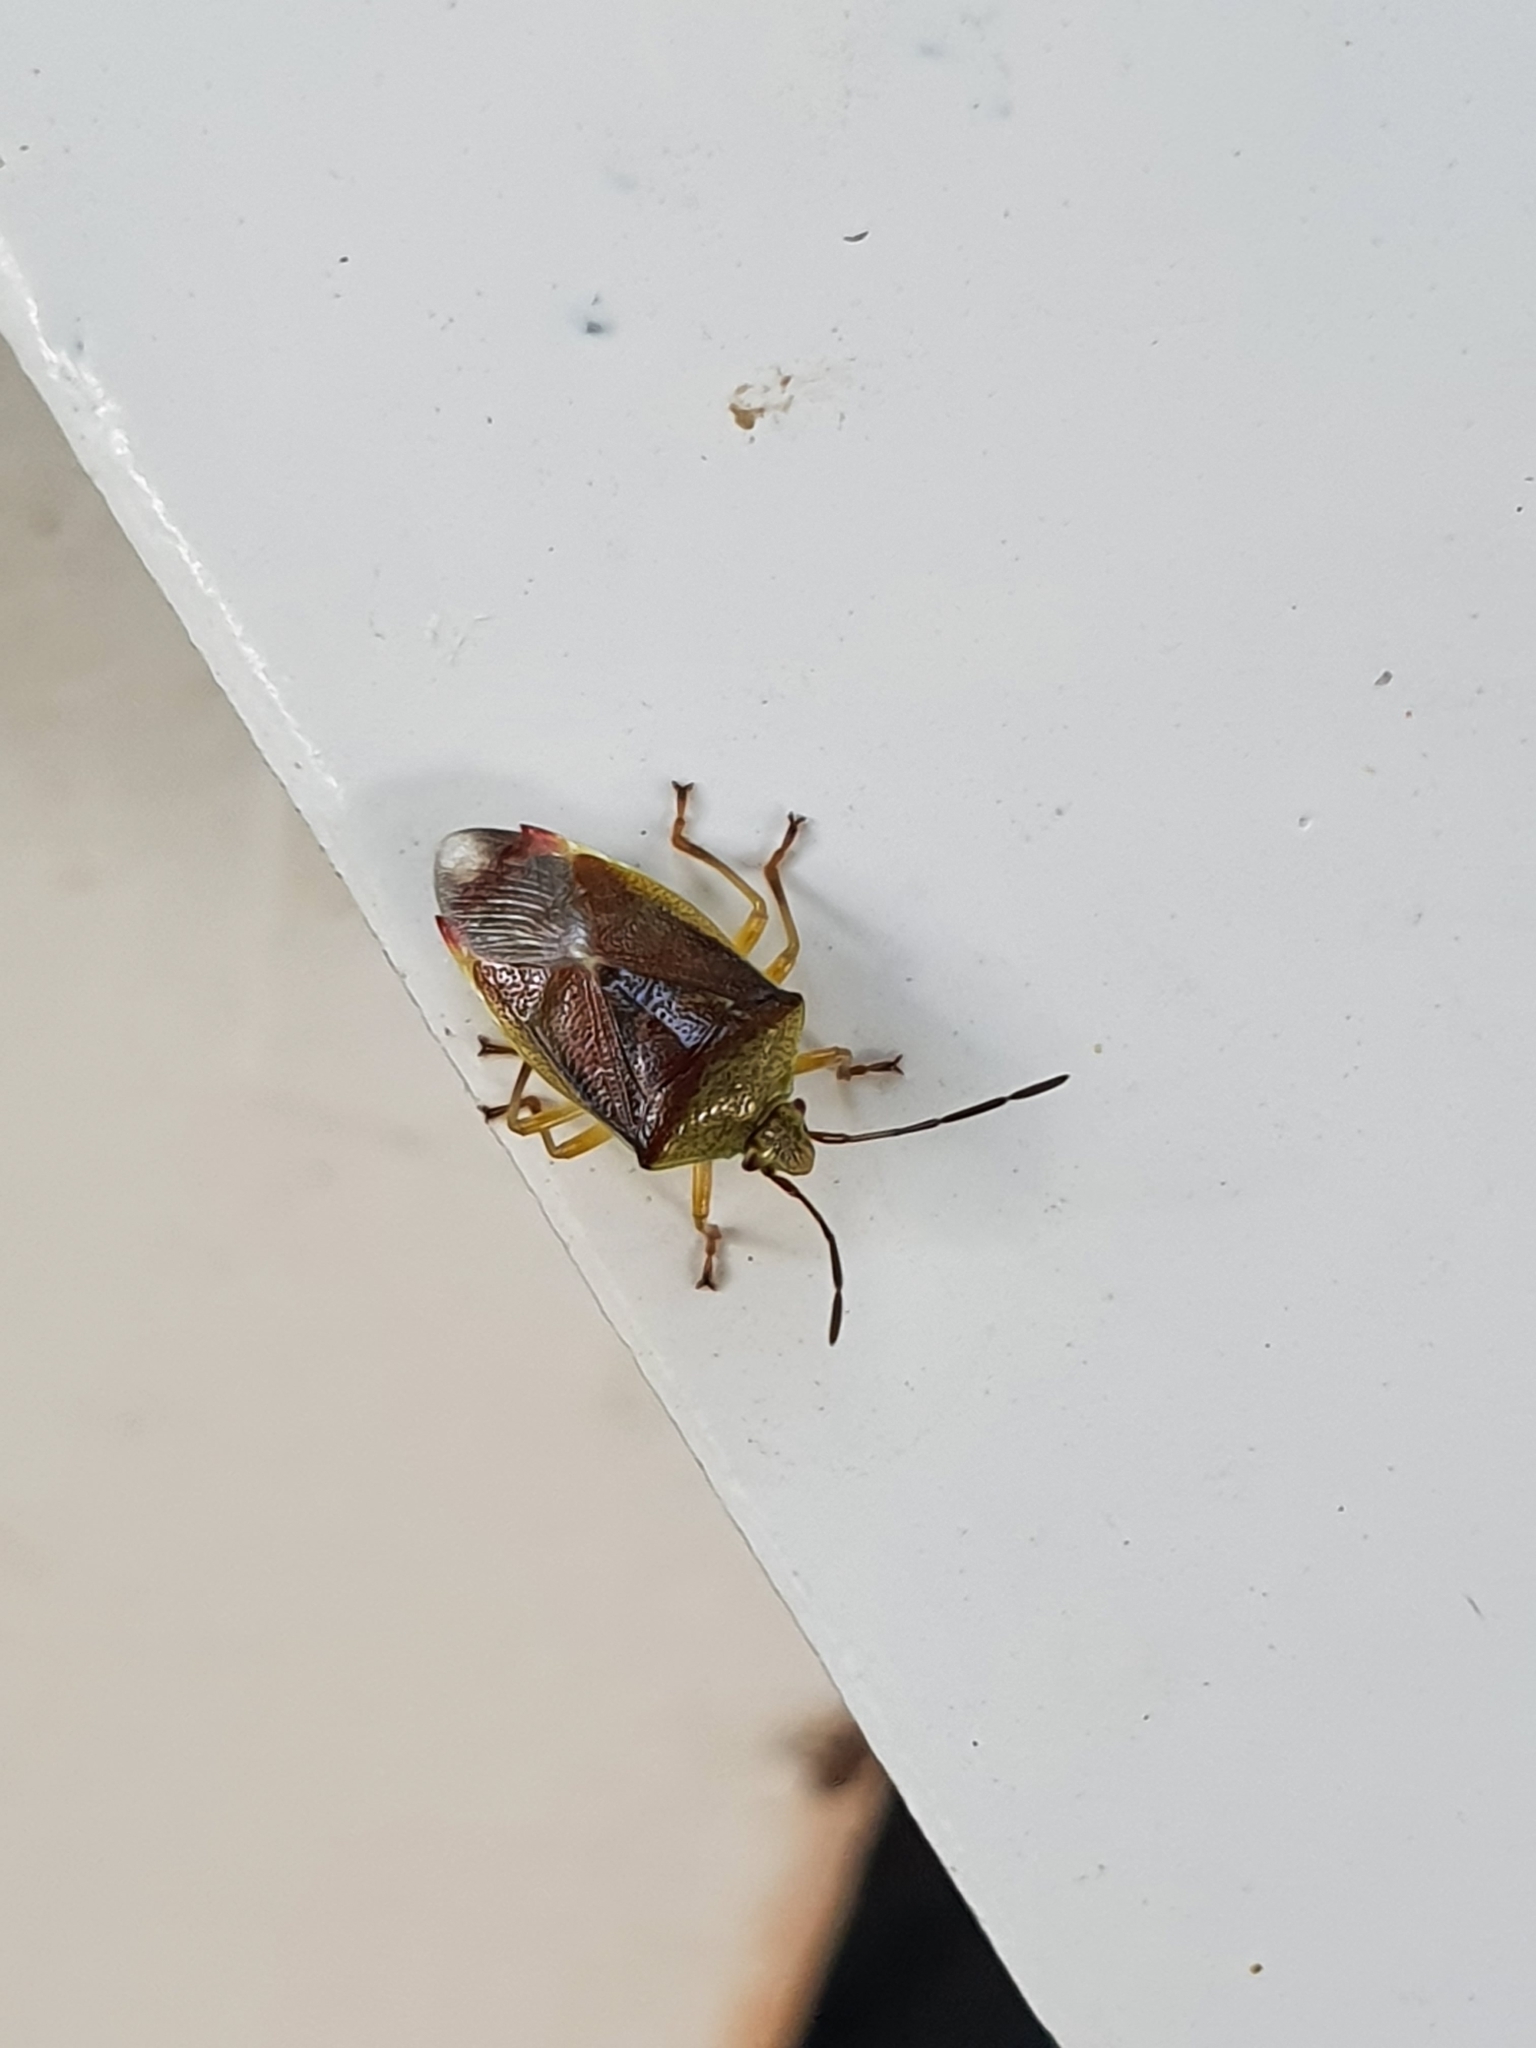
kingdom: Animalia
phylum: Arthropoda
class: Insecta
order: Hemiptera
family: Acanthosomatidae
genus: Elasmostethus
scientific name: Elasmostethus
